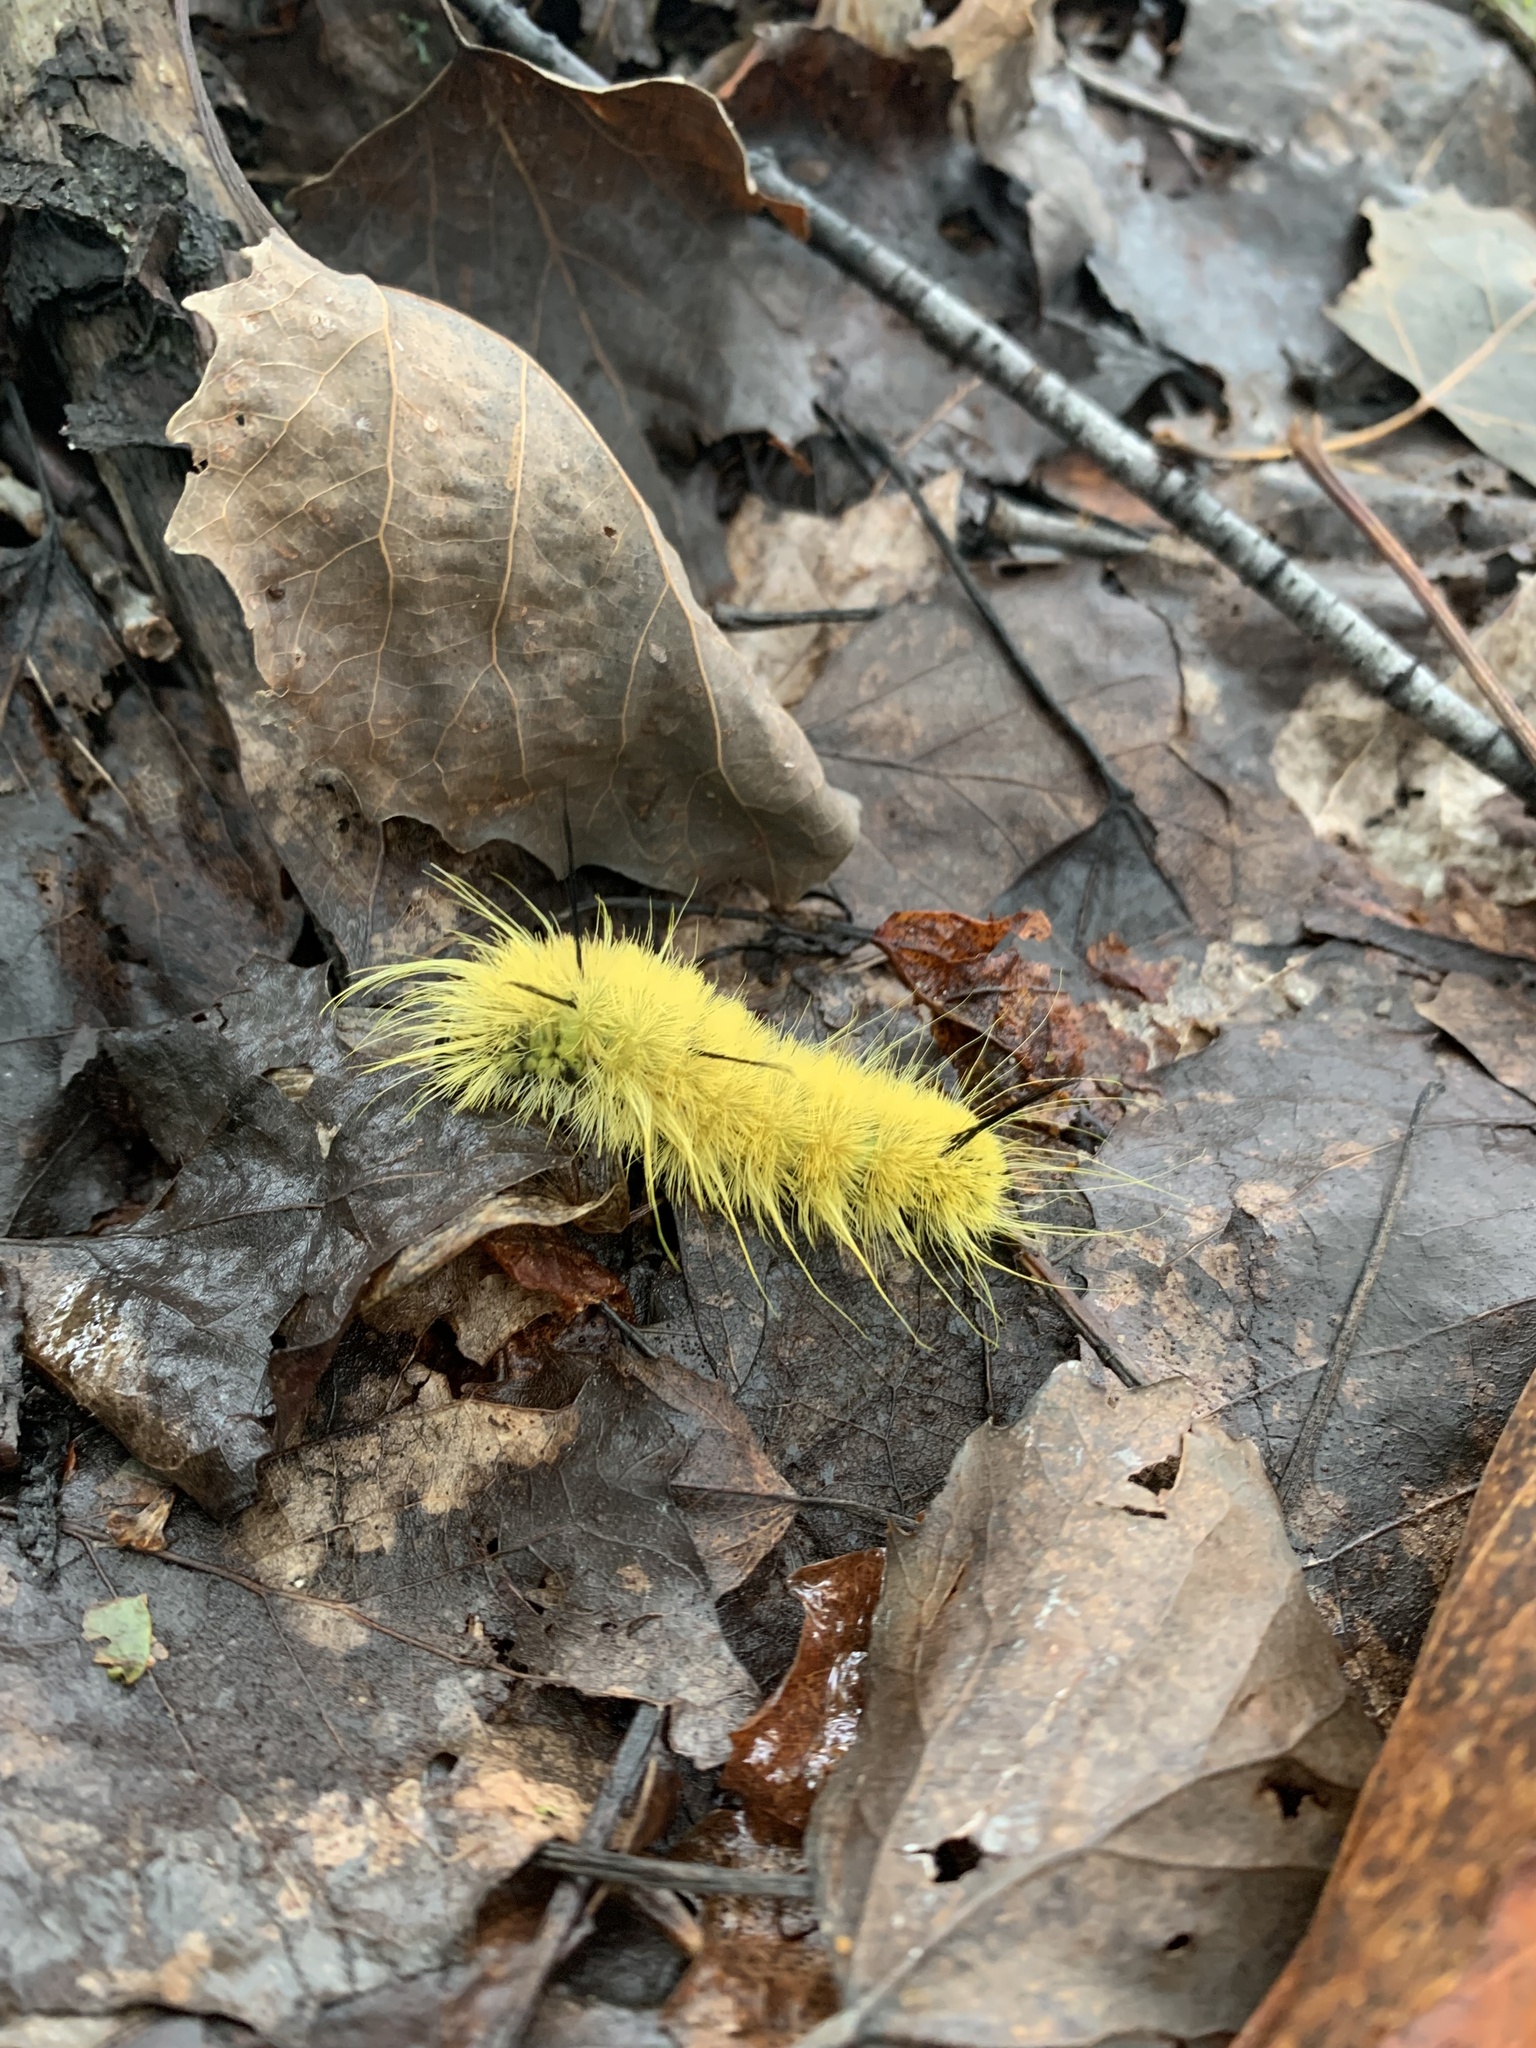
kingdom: Animalia
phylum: Arthropoda
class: Insecta
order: Lepidoptera
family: Noctuidae
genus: Acronicta
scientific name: Acronicta americana
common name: American dagger
